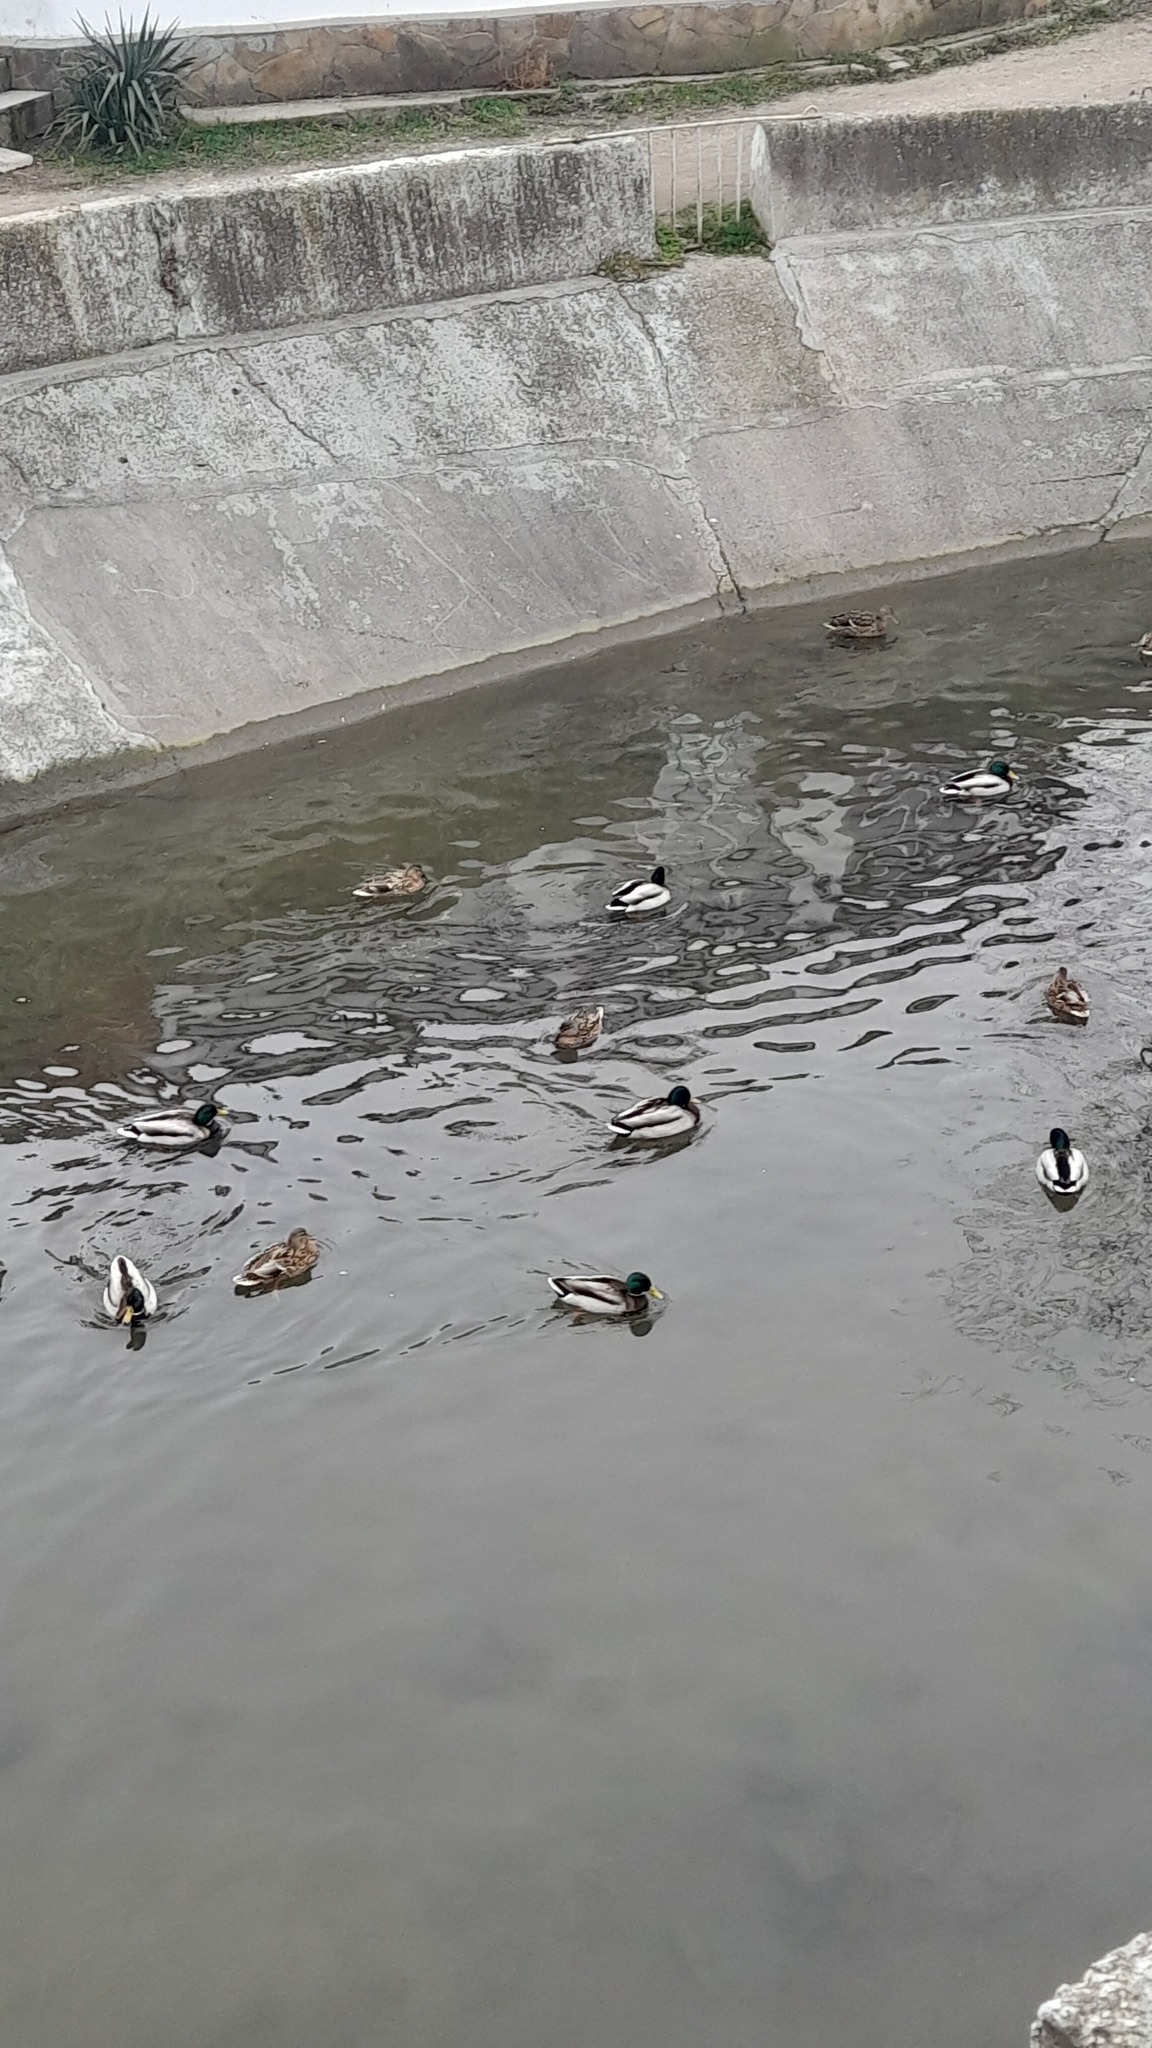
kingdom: Animalia
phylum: Chordata
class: Aves
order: Anseriformes
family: Anatidae
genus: Anas
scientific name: Anas platyrhynchos
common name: Mallard
